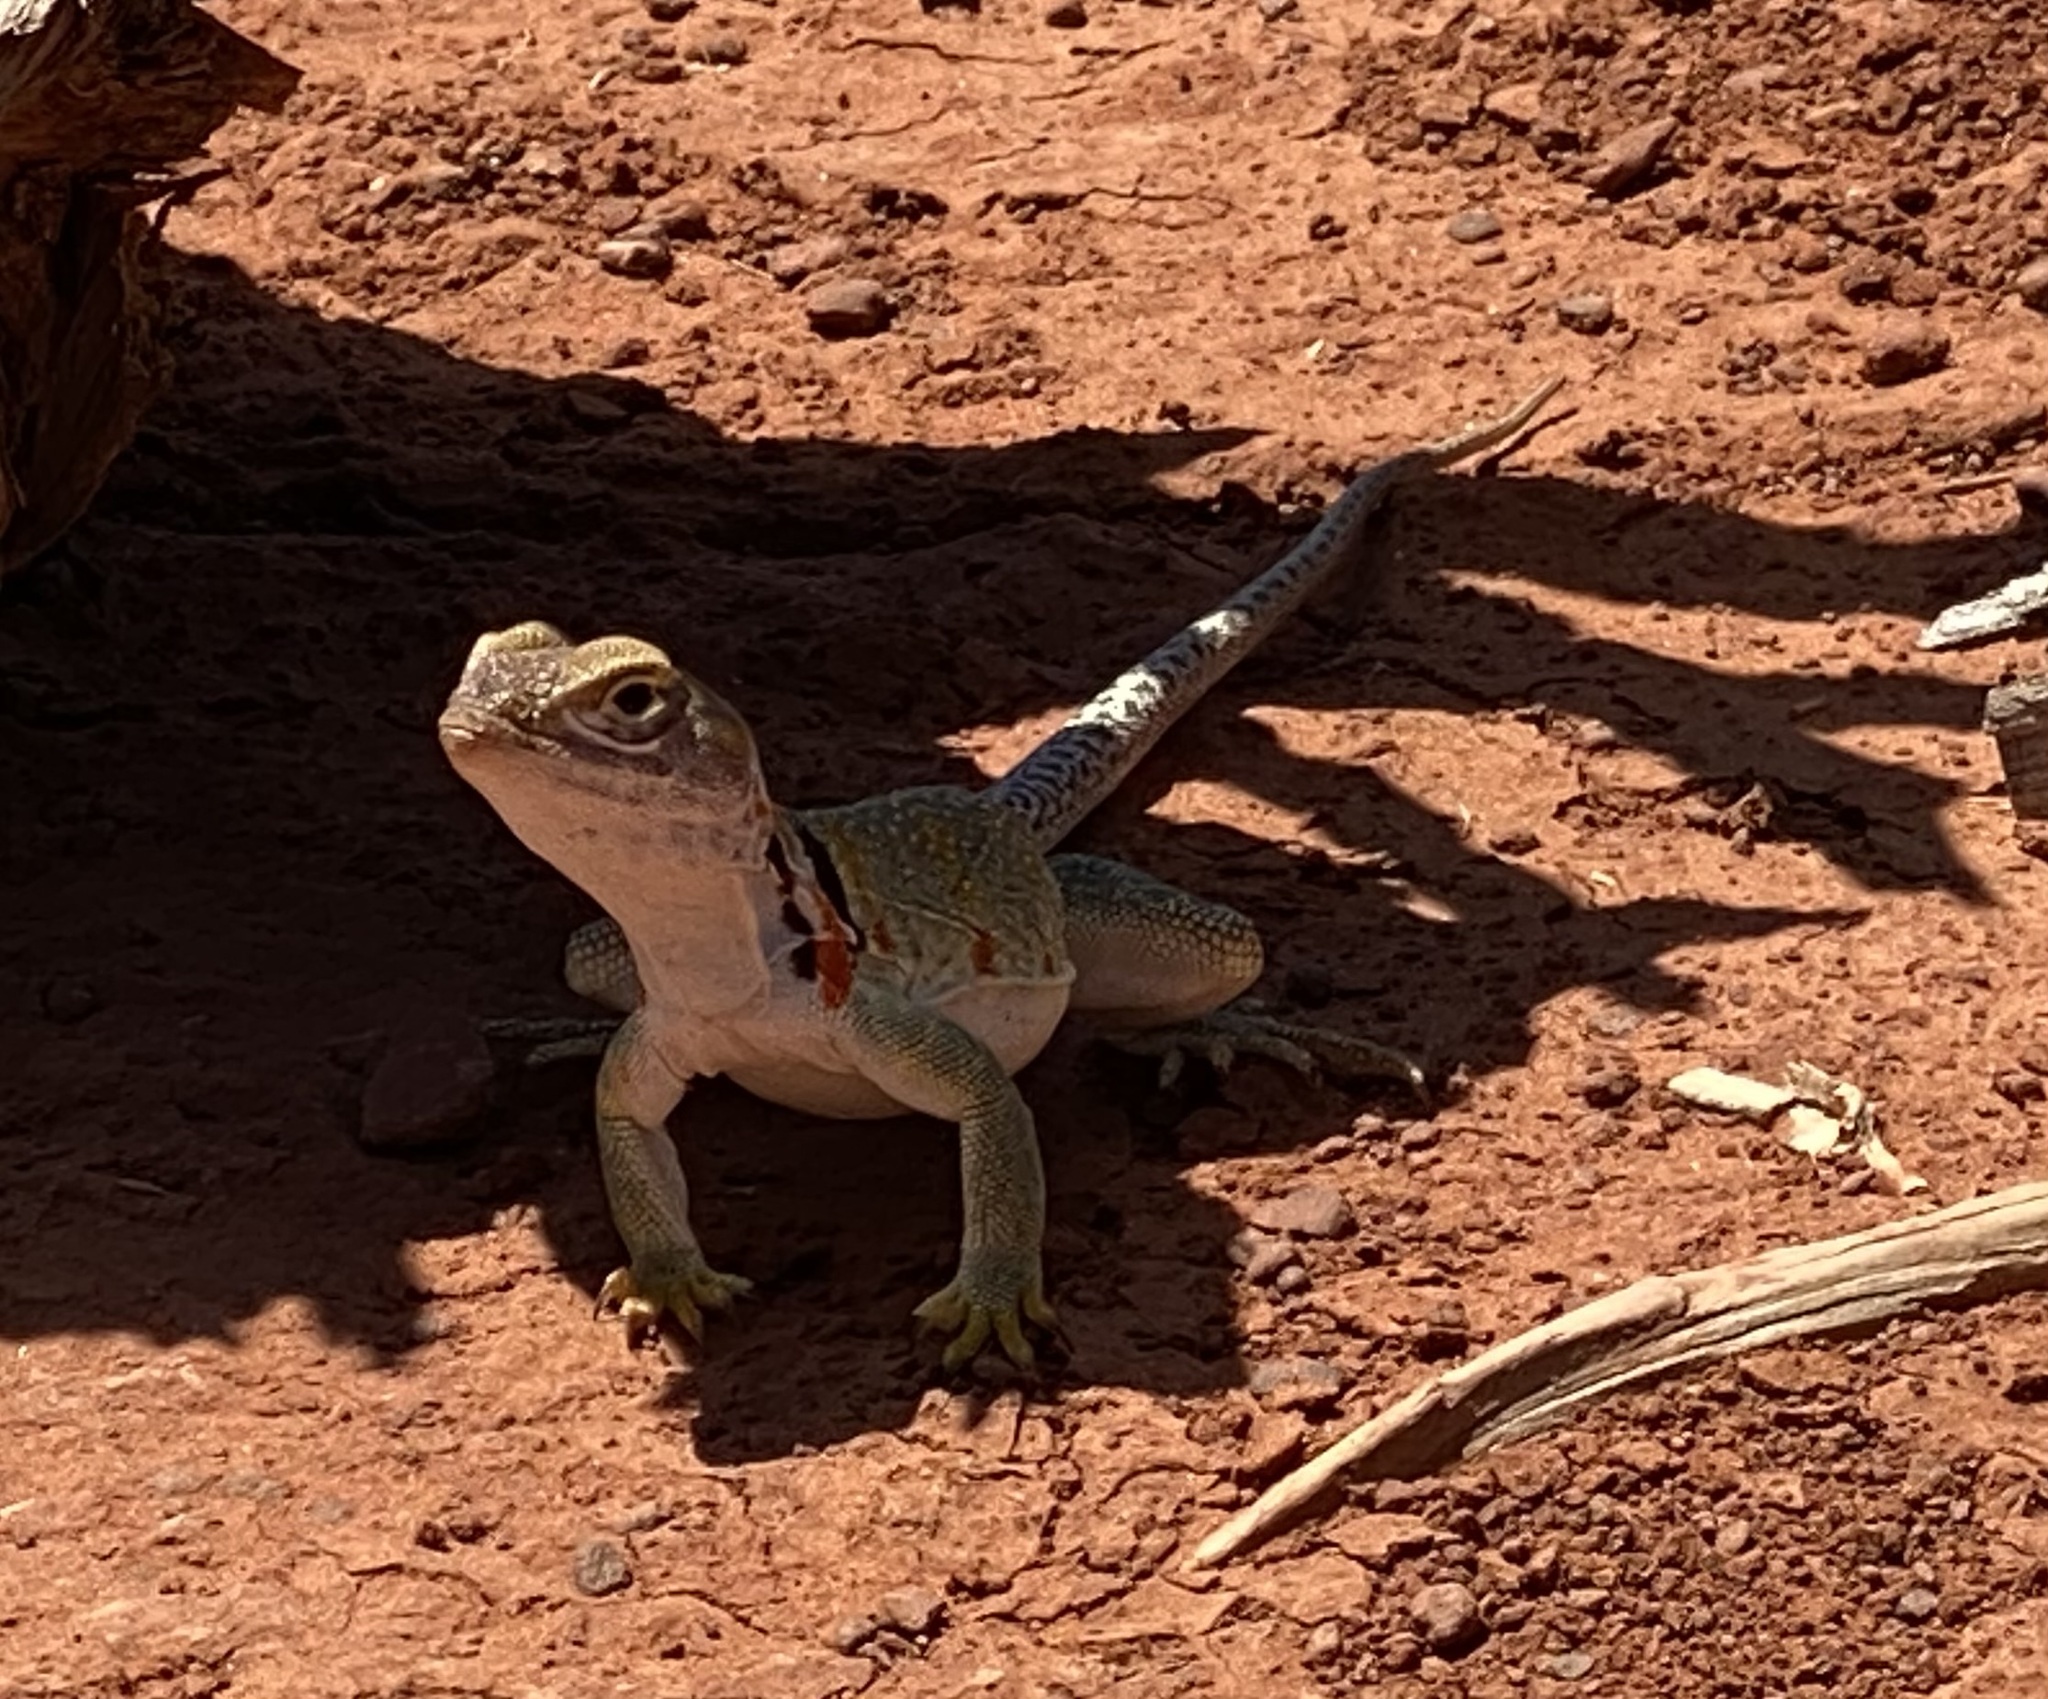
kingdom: Animalia
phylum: Chordata
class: Squamata
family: Crotaphytidae
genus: Crotaphytus
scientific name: Crotaphytus collaris
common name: Collared lizard
